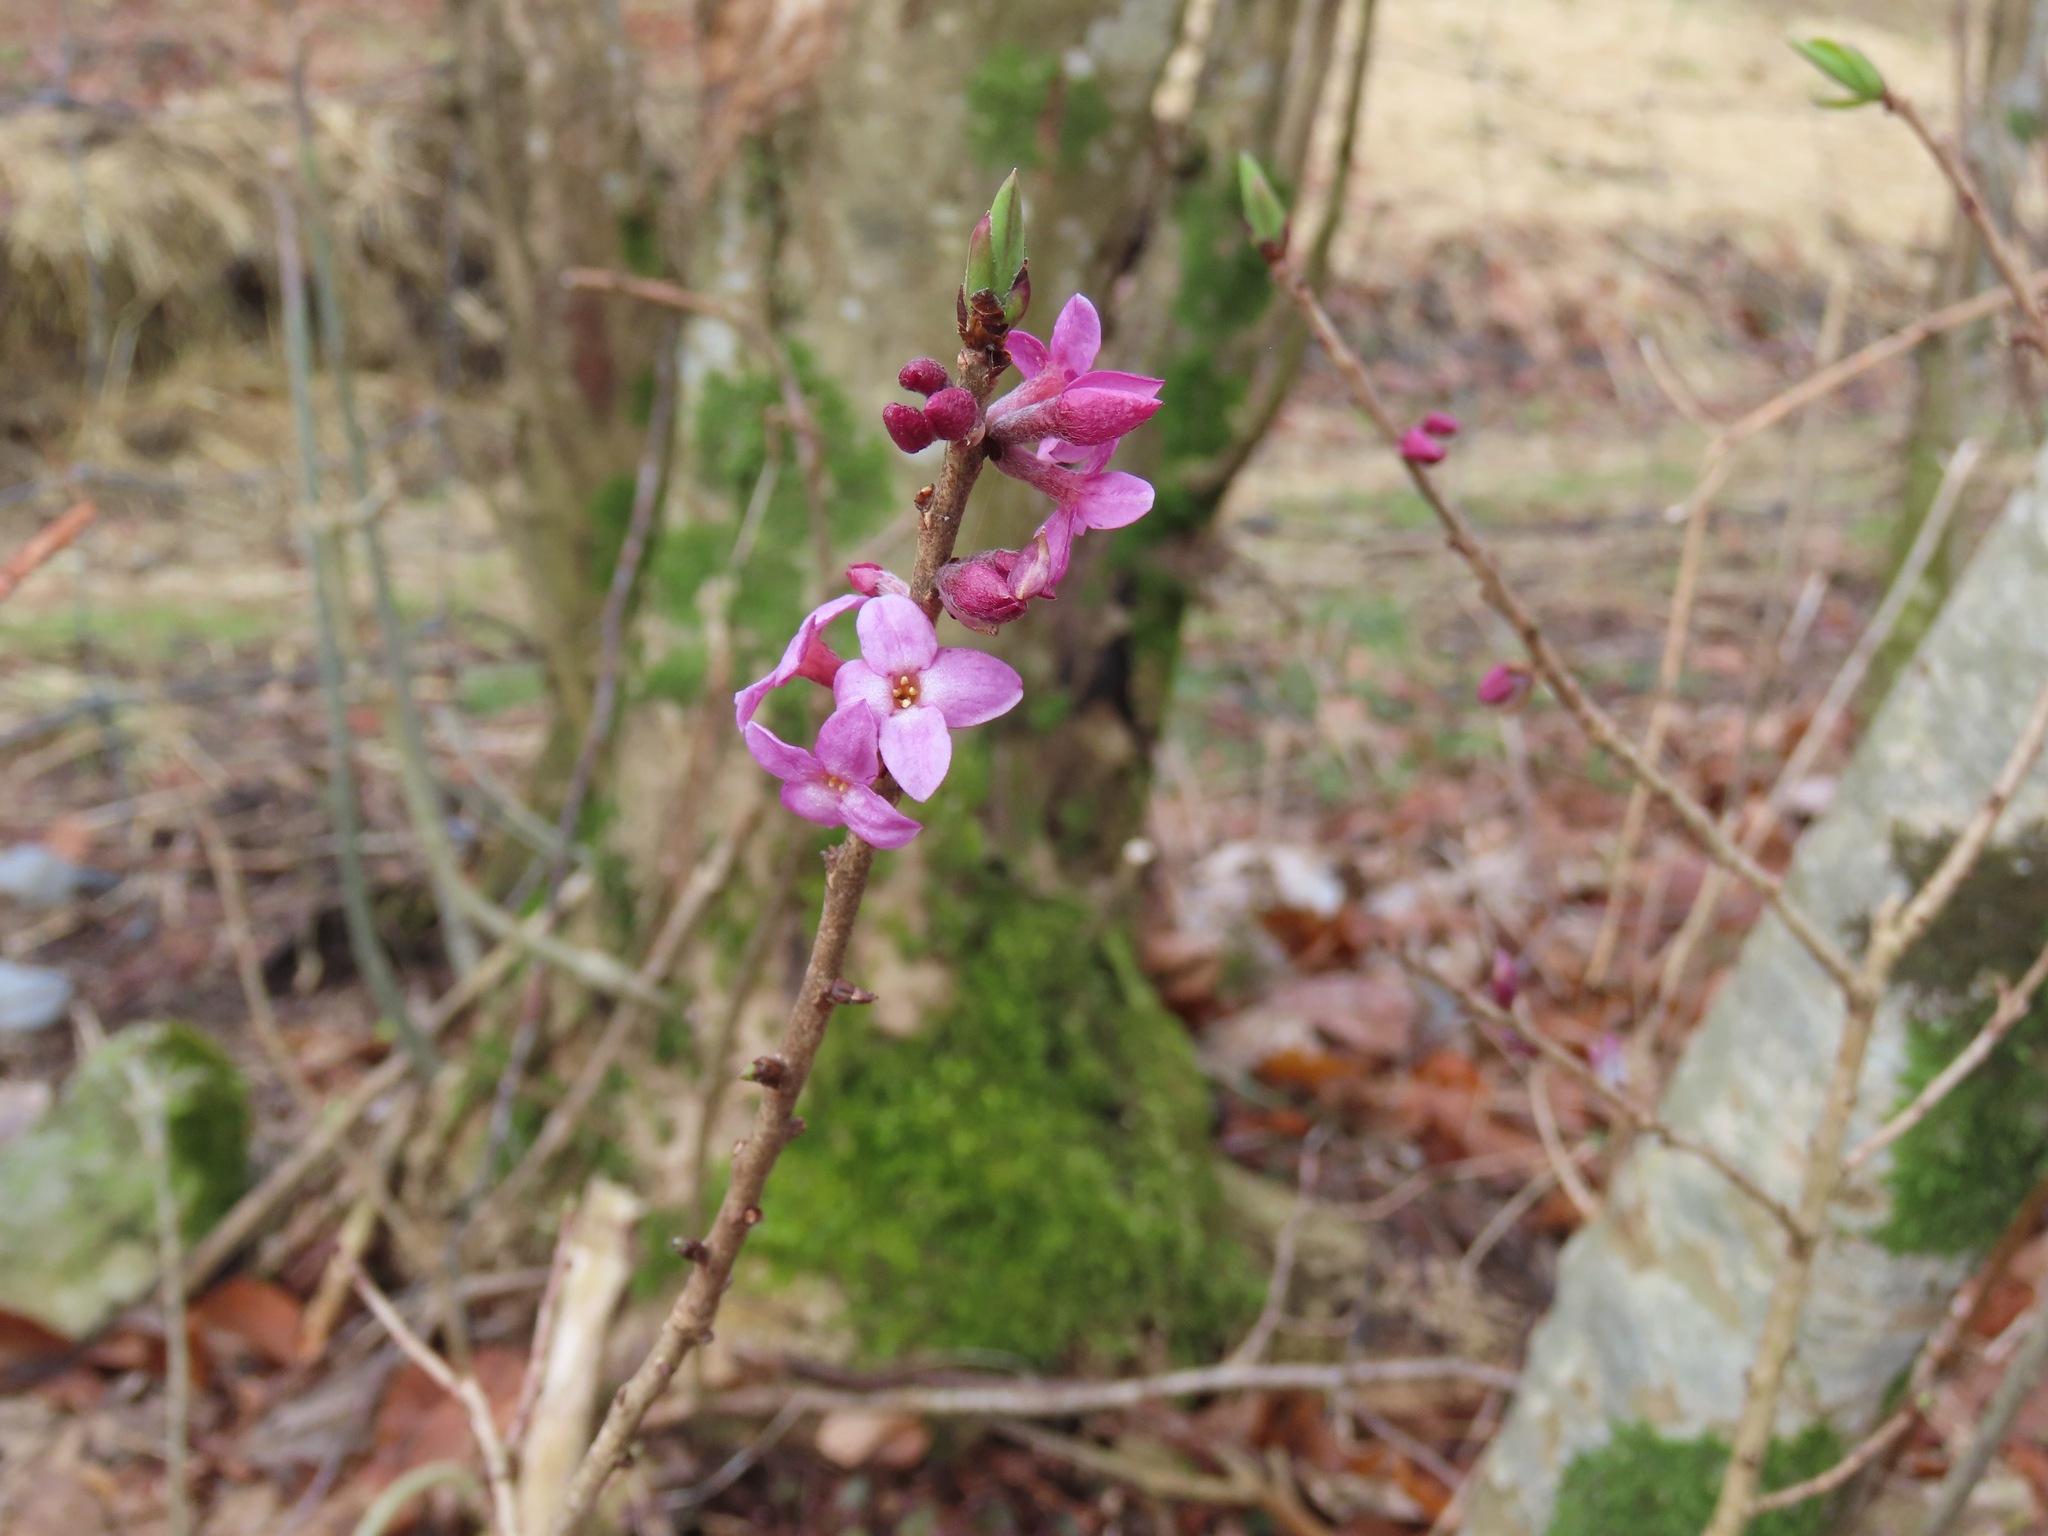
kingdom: Plantae
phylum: Tracheophyta
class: Magnoliopsida
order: Malvales
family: Thymelaeaceae
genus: Daphne
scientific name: Daphne mezereum
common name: Mezereon
